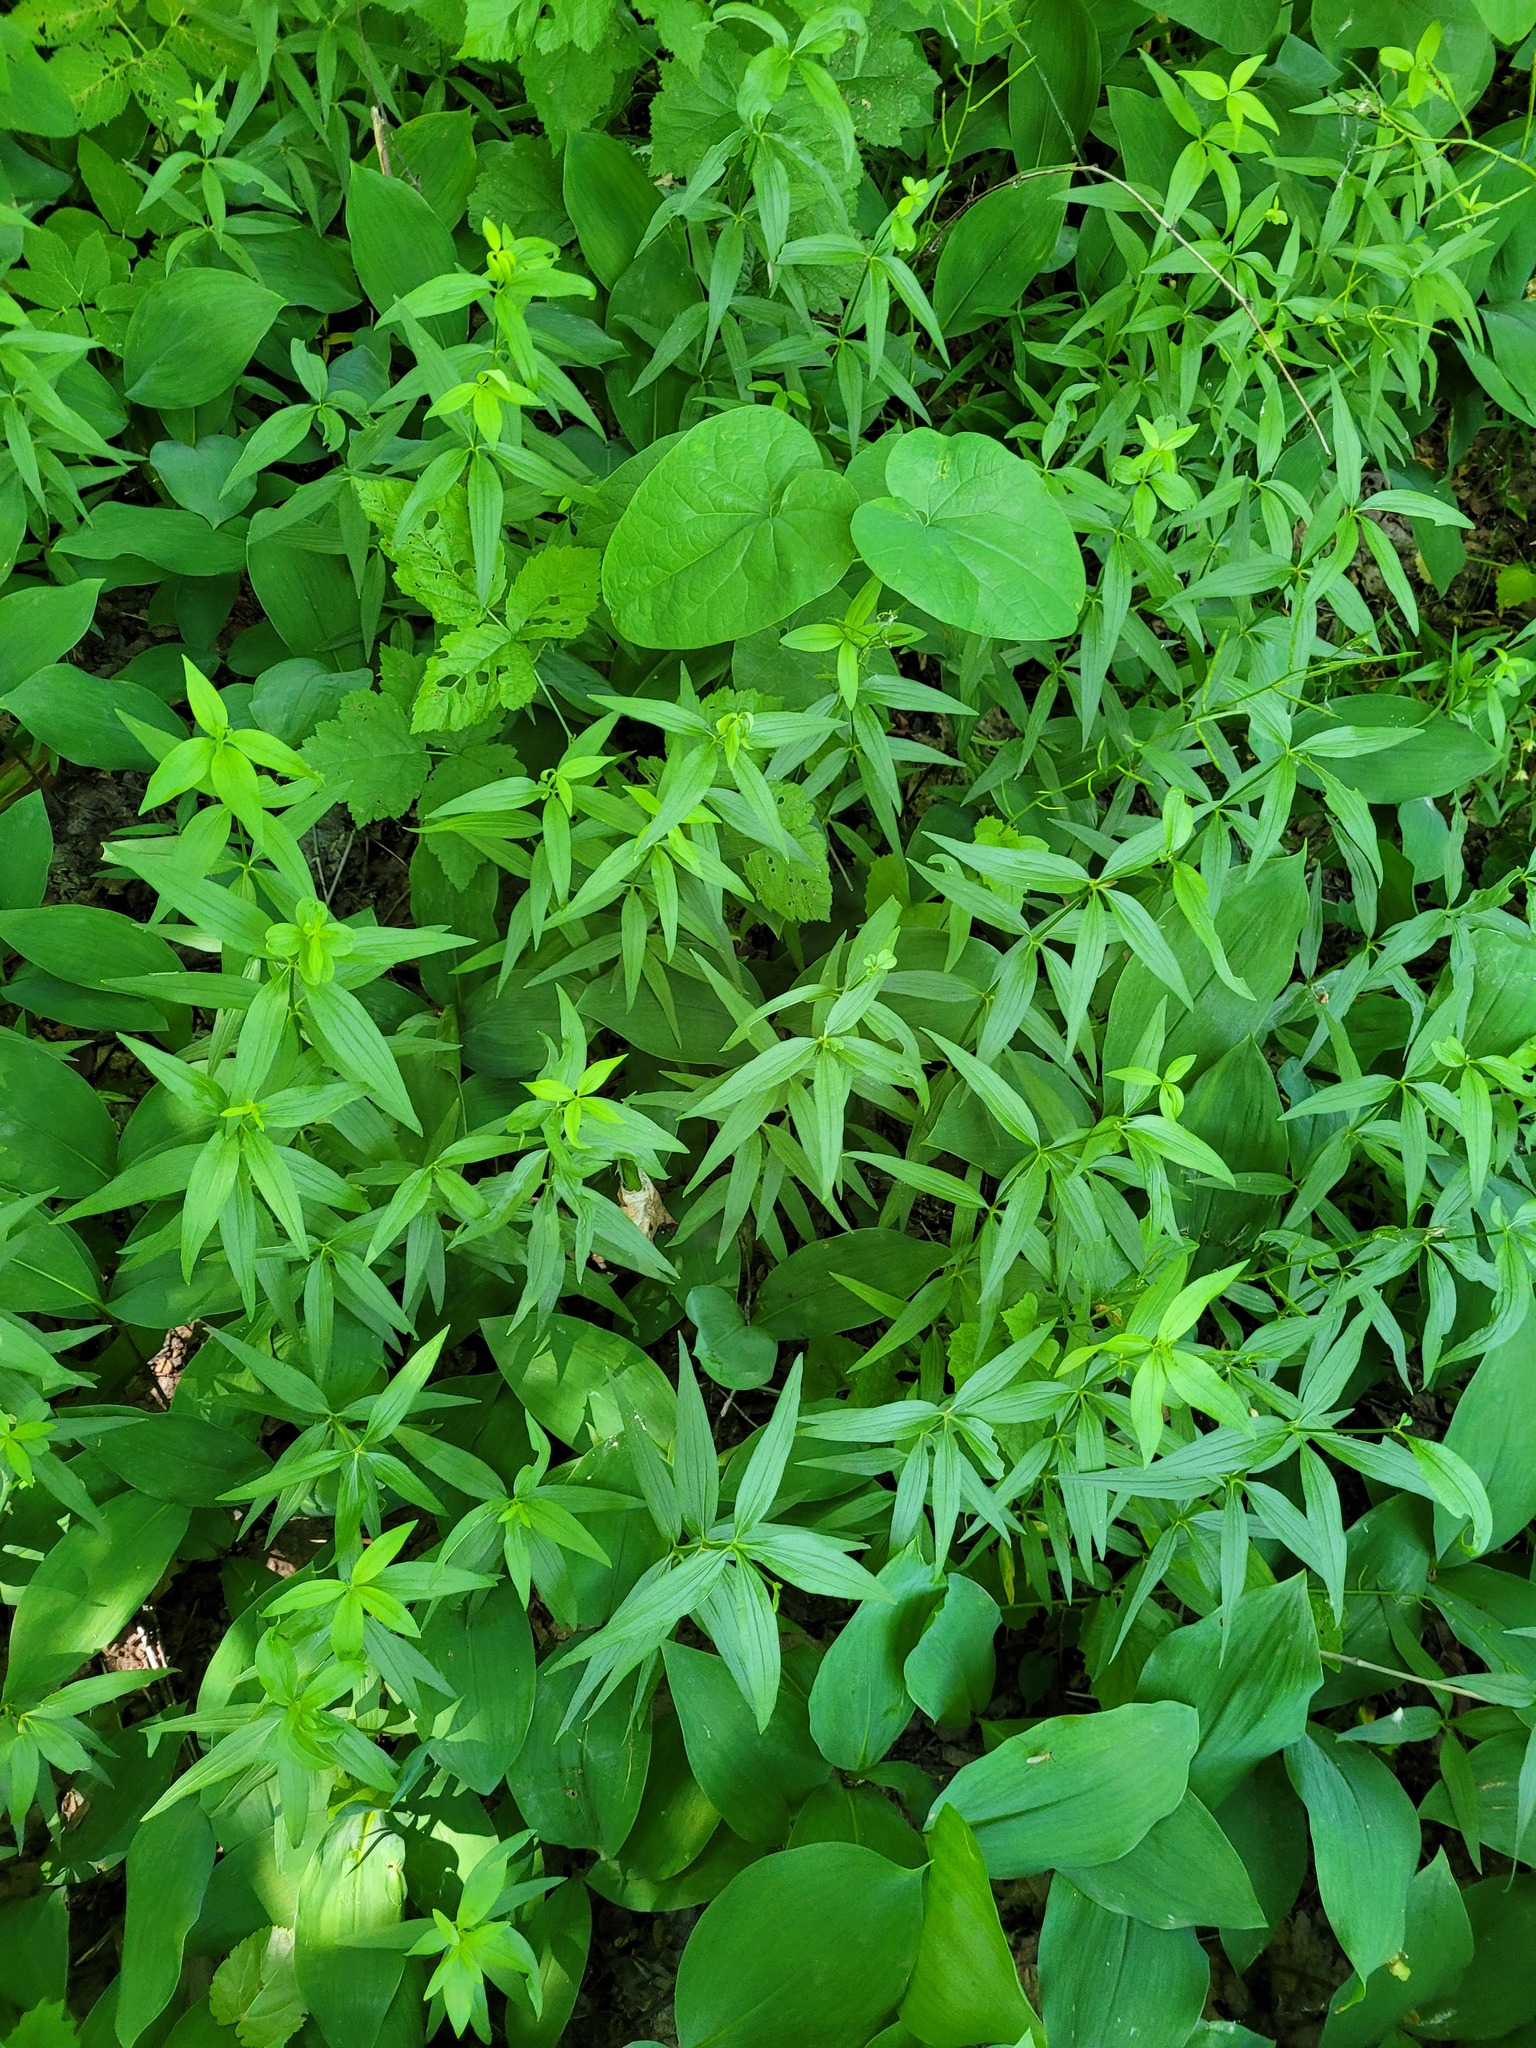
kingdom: Plantae
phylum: Tracheophyta
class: Magnoliopsida
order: Gentianales
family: Rubiaceae
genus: Galium
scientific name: Galium rubioides
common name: European bedstraw
